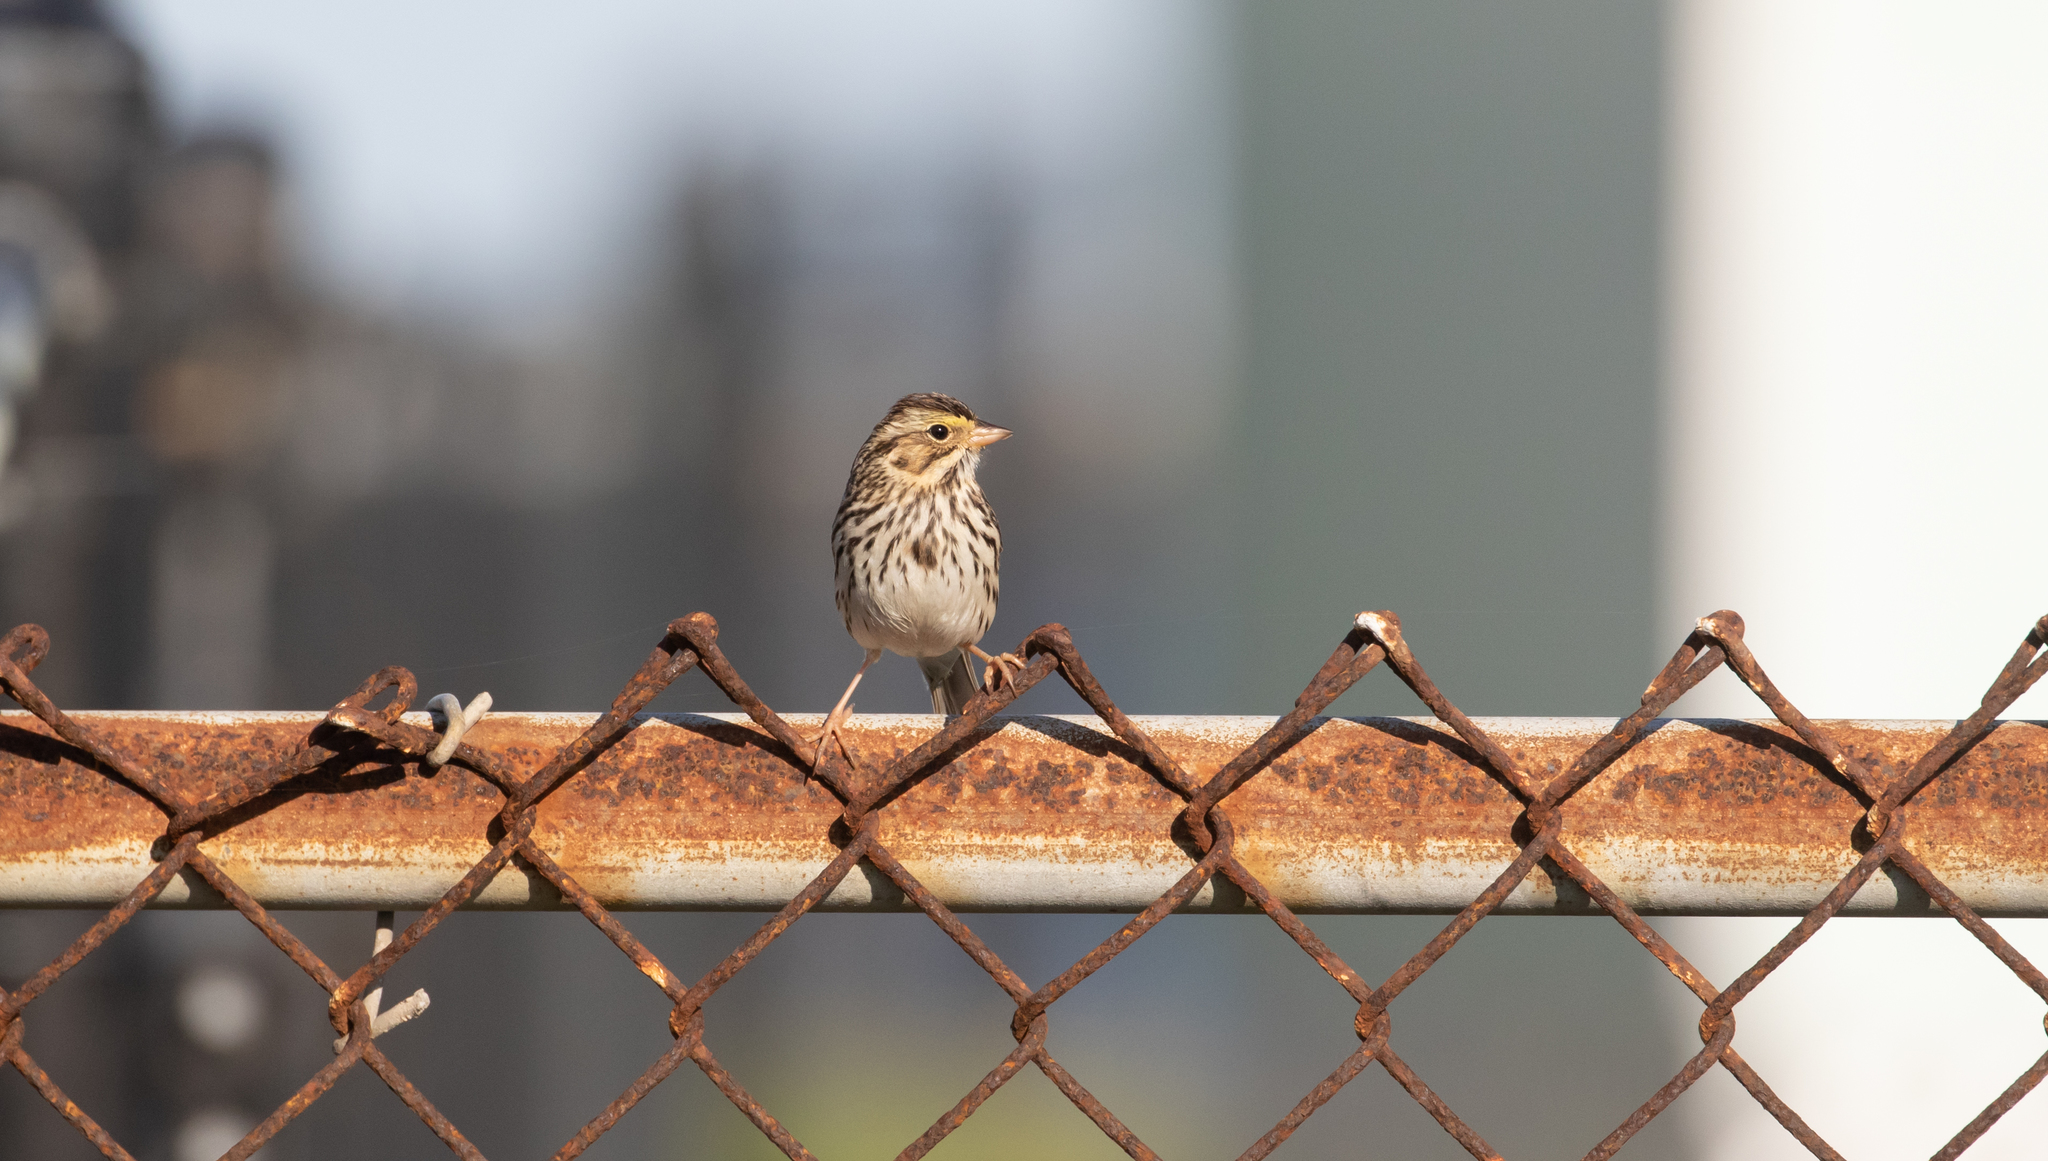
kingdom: Animalia
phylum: Chordata
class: Aves
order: Passeriformes
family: Passerellidae
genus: Passerculus
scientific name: Passerculus sandwichensis
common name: Savannah sparrow
